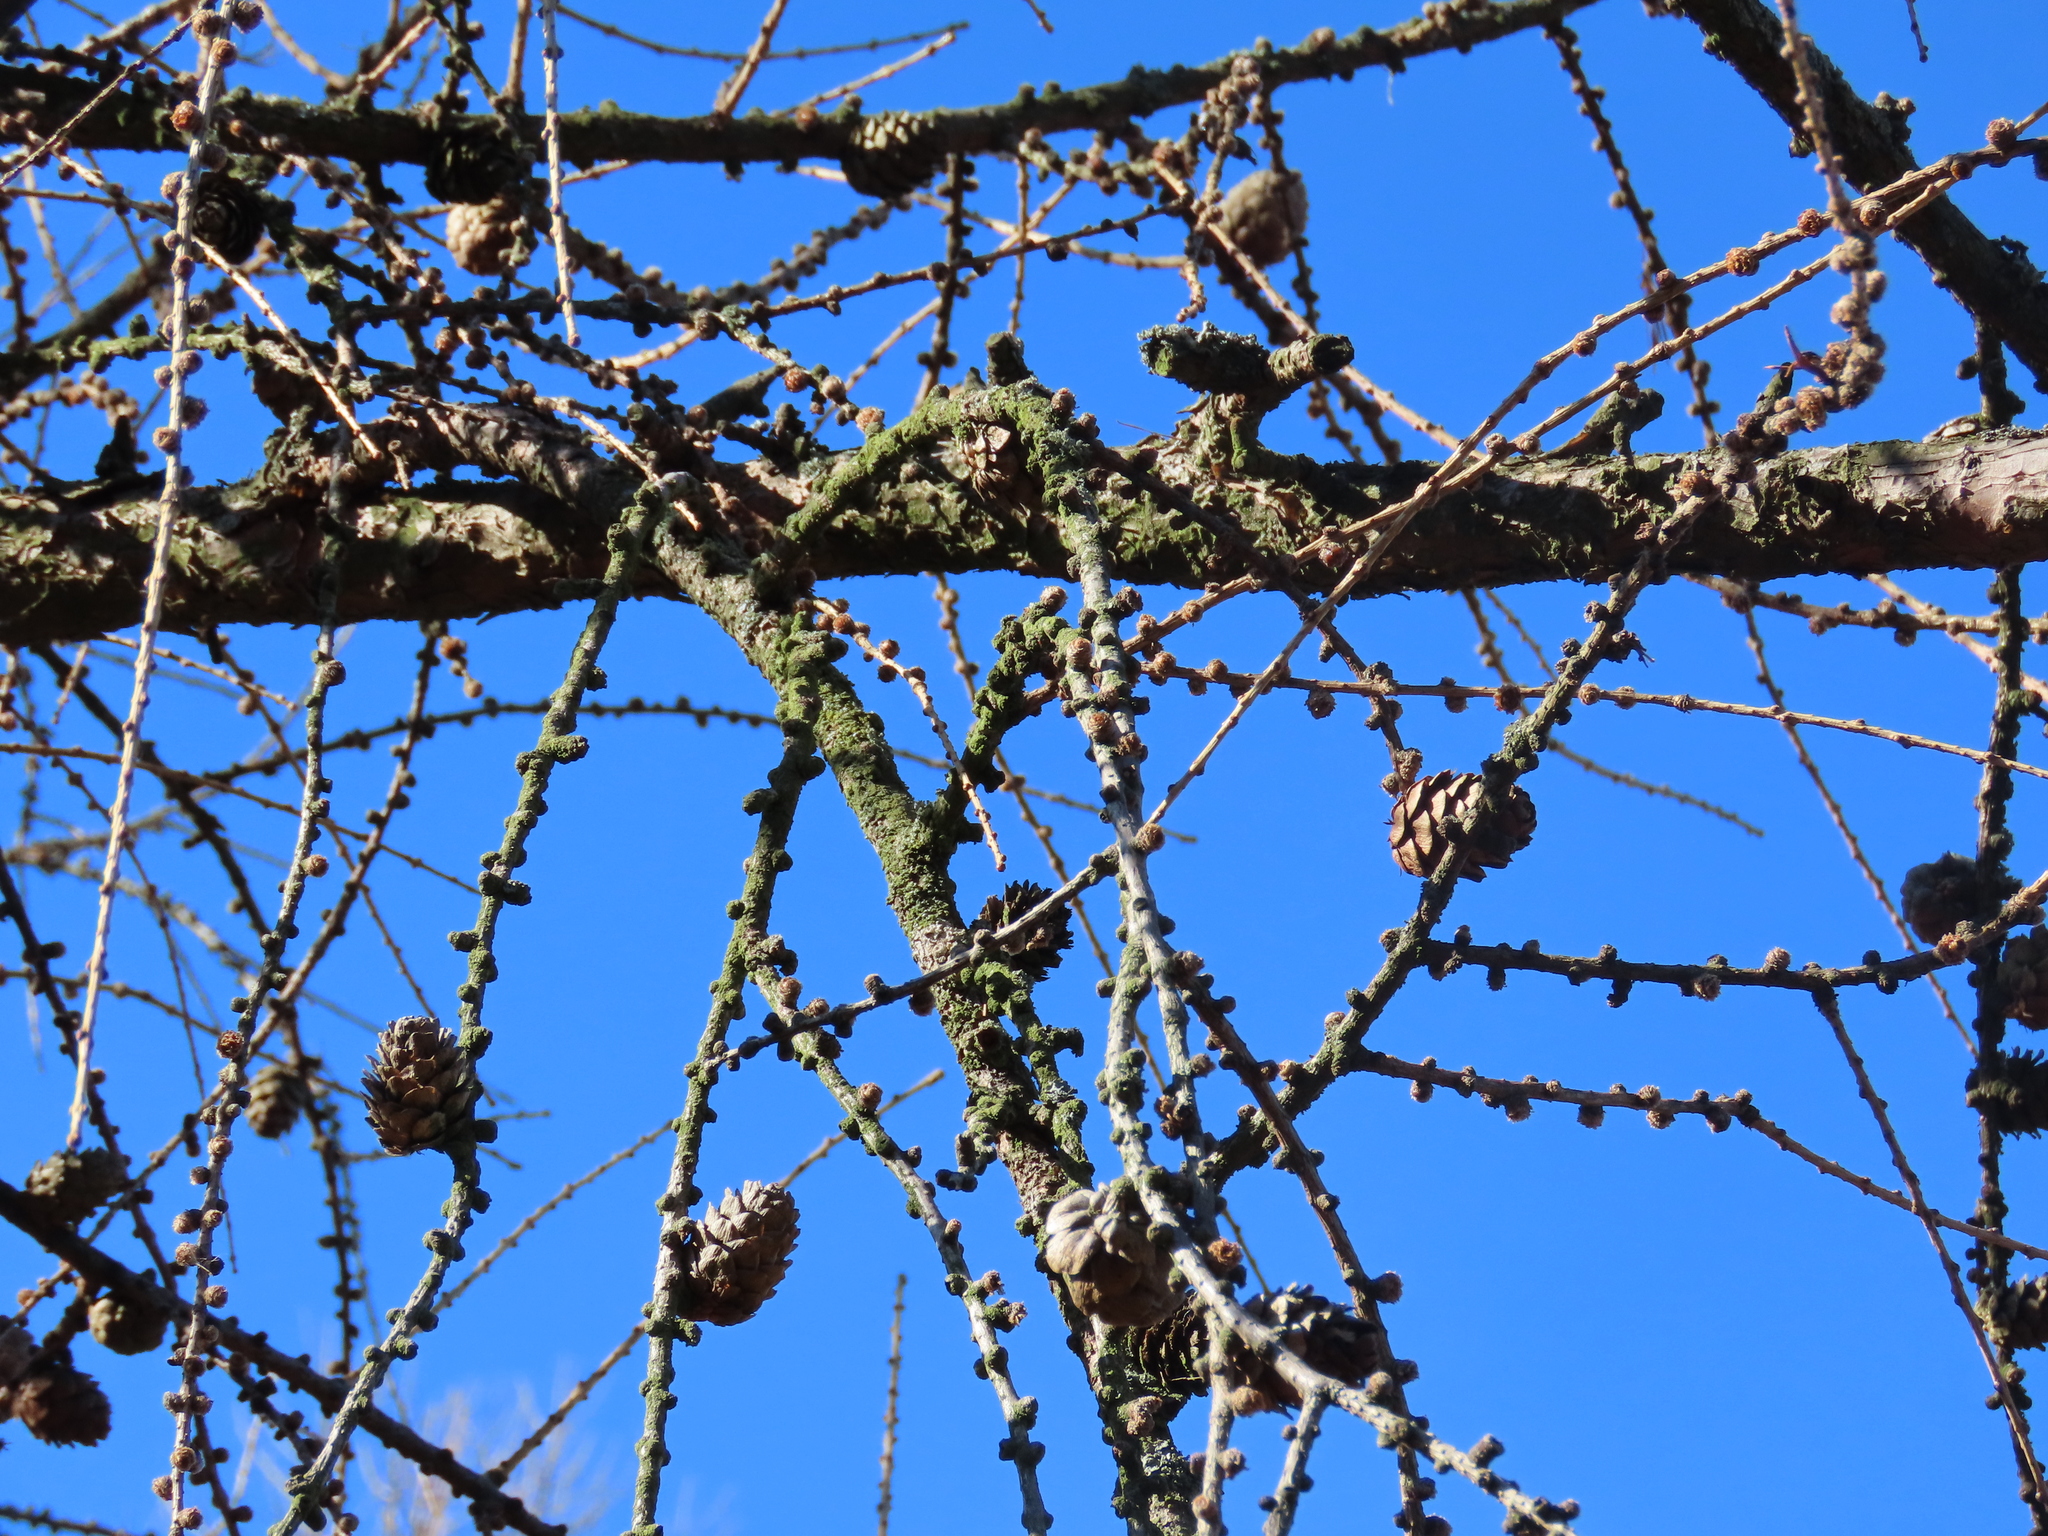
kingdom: Plantae
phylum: Tracheophyta
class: Pinopsida
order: Pinales
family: Pinaceae
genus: Larix
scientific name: Larix decidua
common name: European larch
